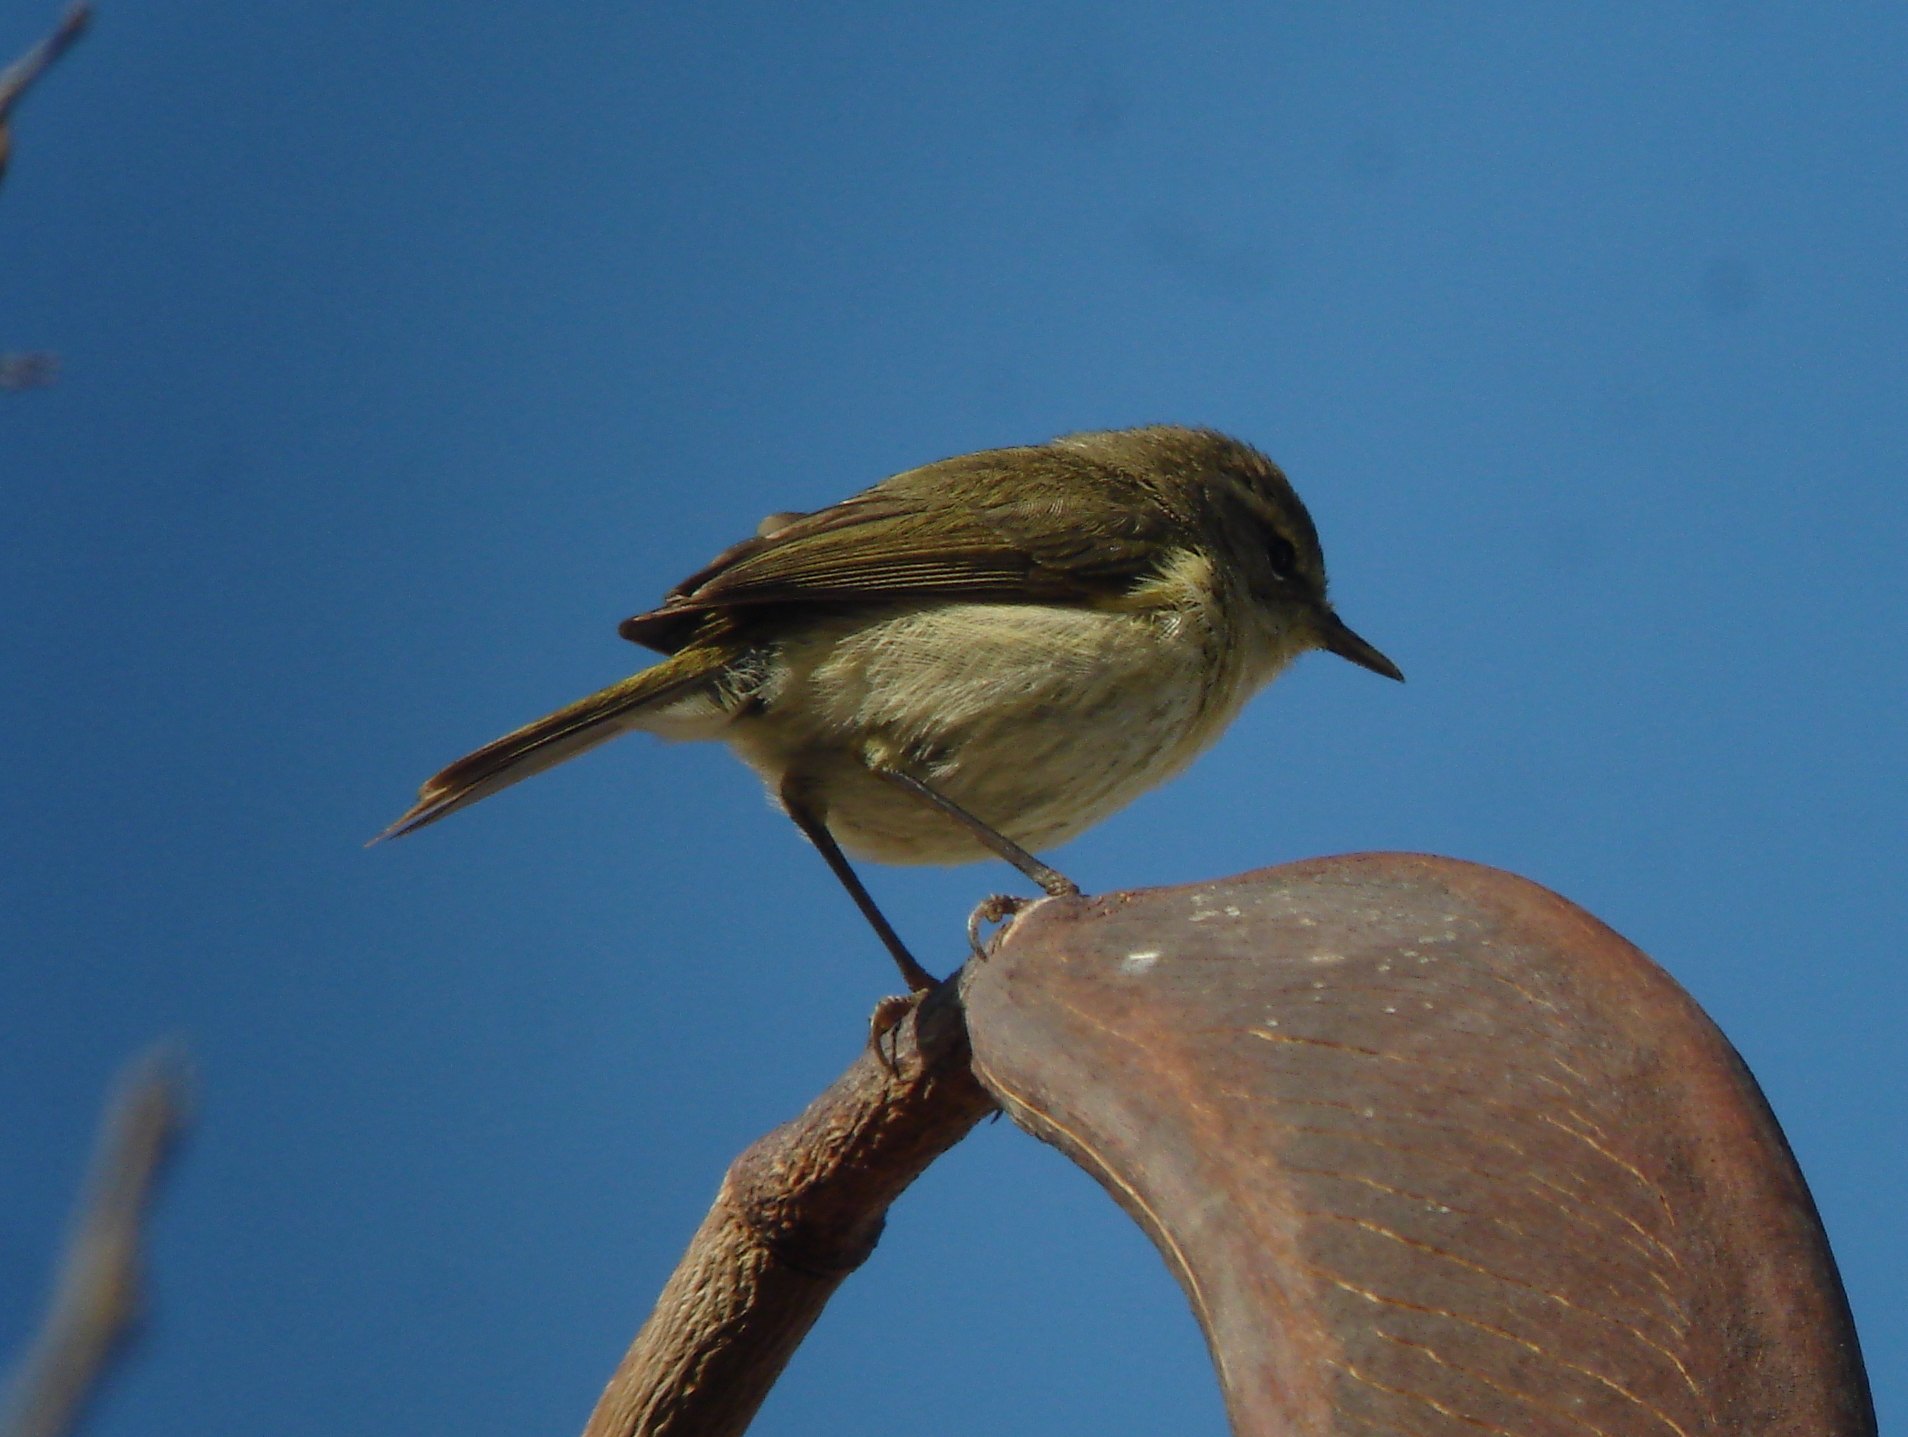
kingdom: Animalia
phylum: Chordata
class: Aves
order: Passeriformes
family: Phylloscopidae
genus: Phylloscopus
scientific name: Phylloscopus canariensis
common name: Canary islands chiffchaff
